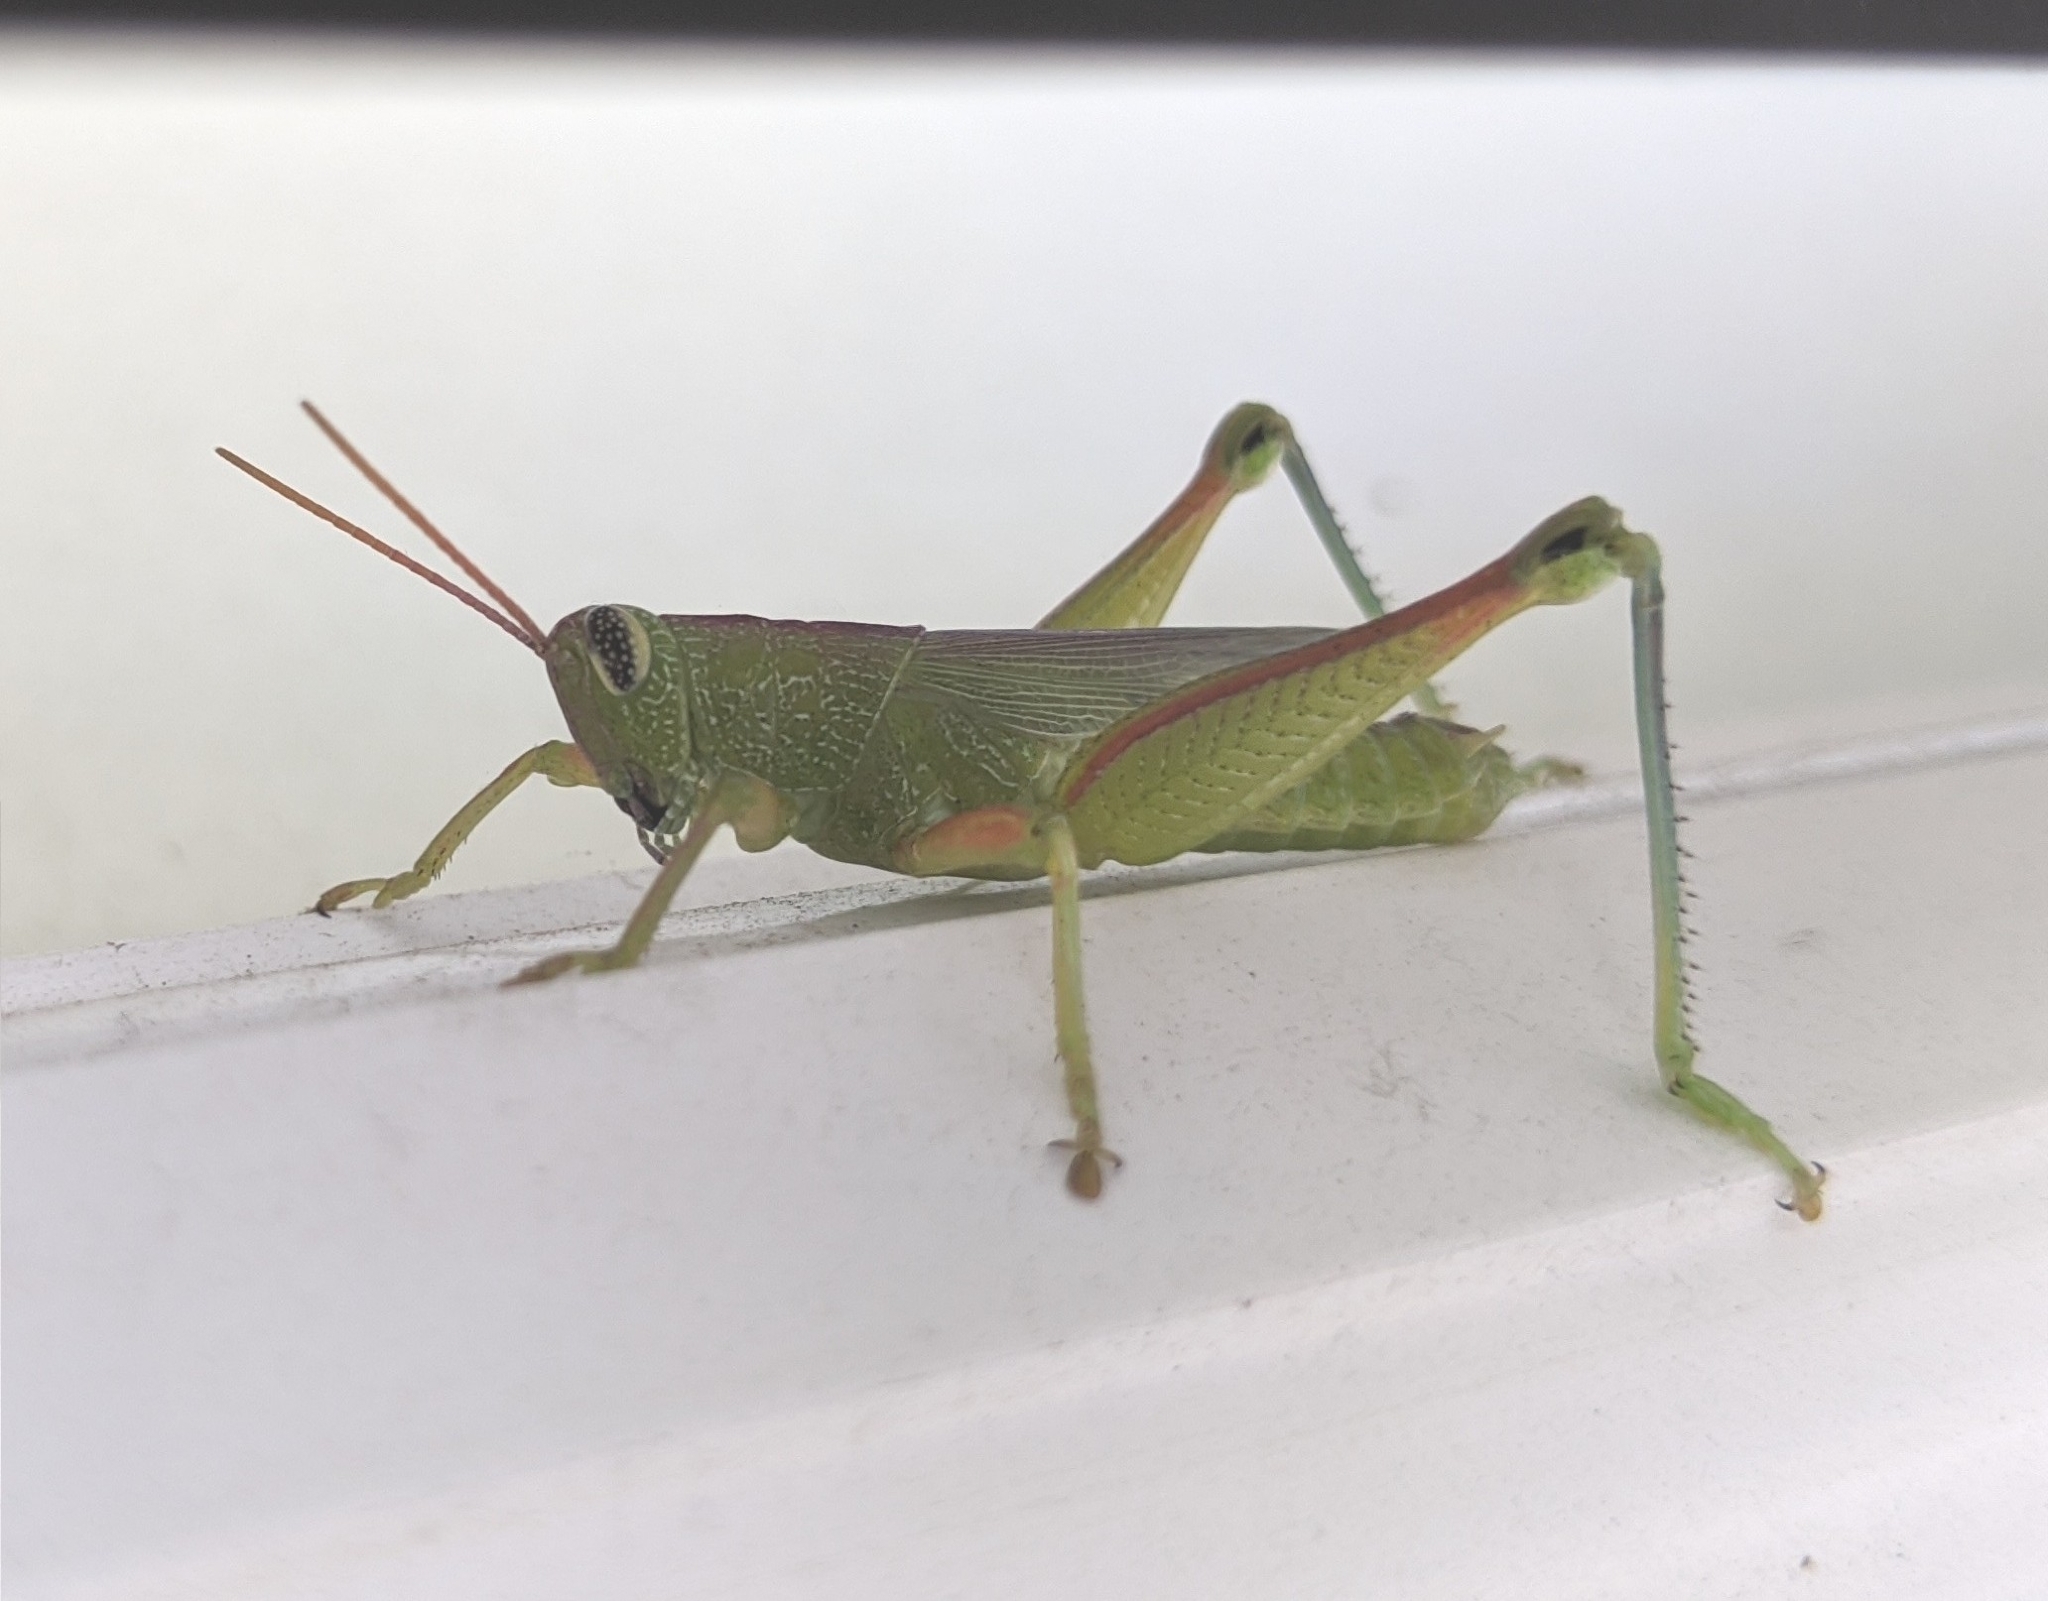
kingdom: Animalia
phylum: Arthropoda
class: Insecta
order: Orthoptera
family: Acrididae
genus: Hesperotettix
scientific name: Hesperotettix speciosus
